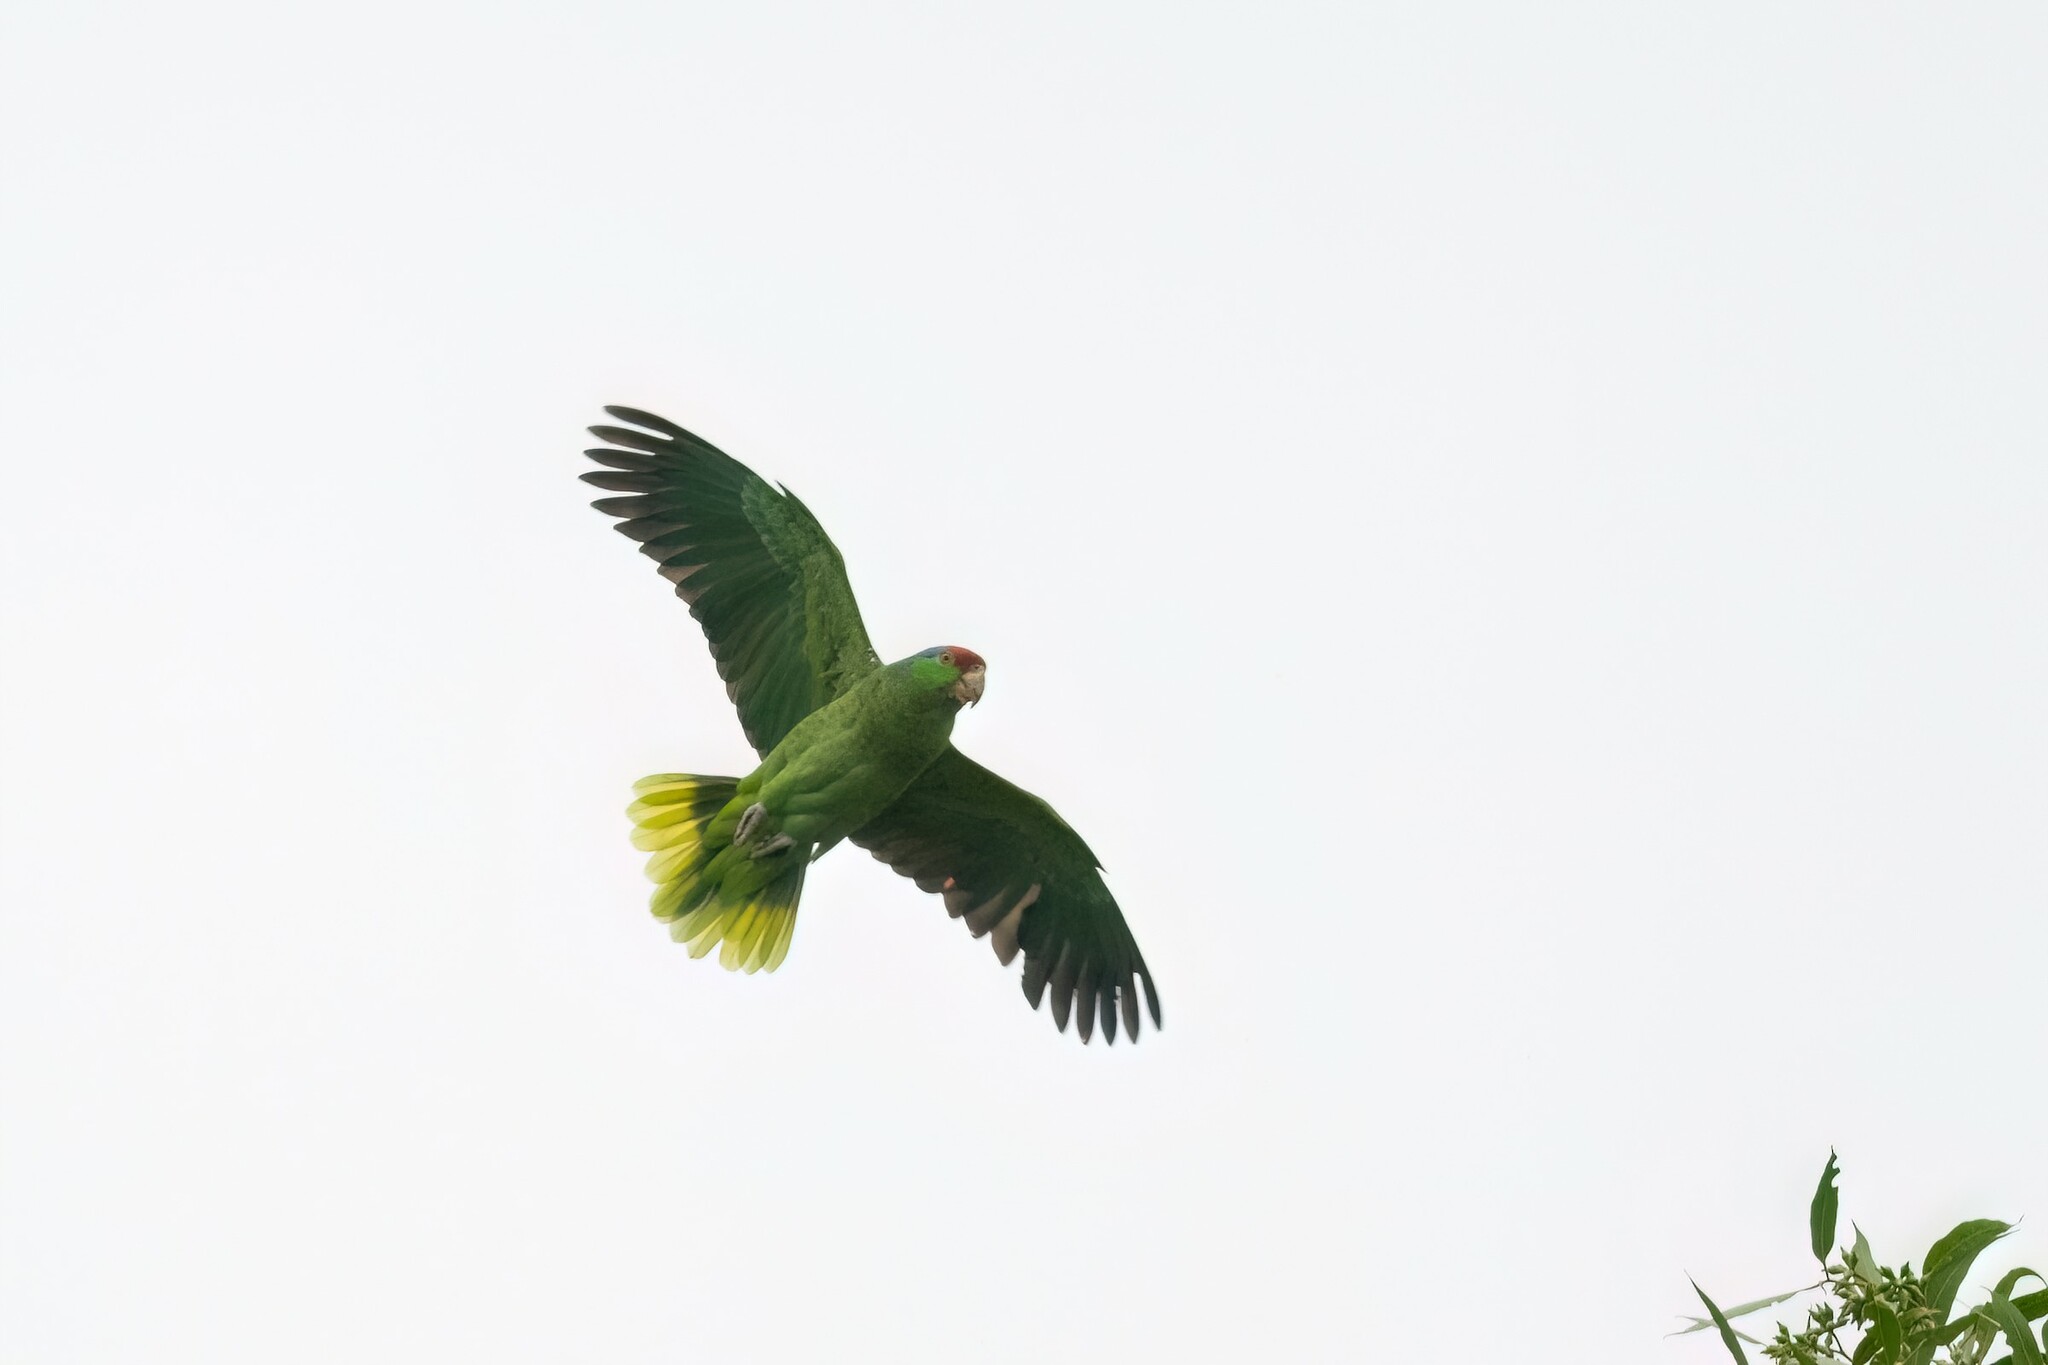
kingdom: Animalia
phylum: Chordata
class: Aves
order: Psittaciformes
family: Psittacidae
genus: Amazona
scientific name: Amazona viridigenalis
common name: Red-crowned amazon
